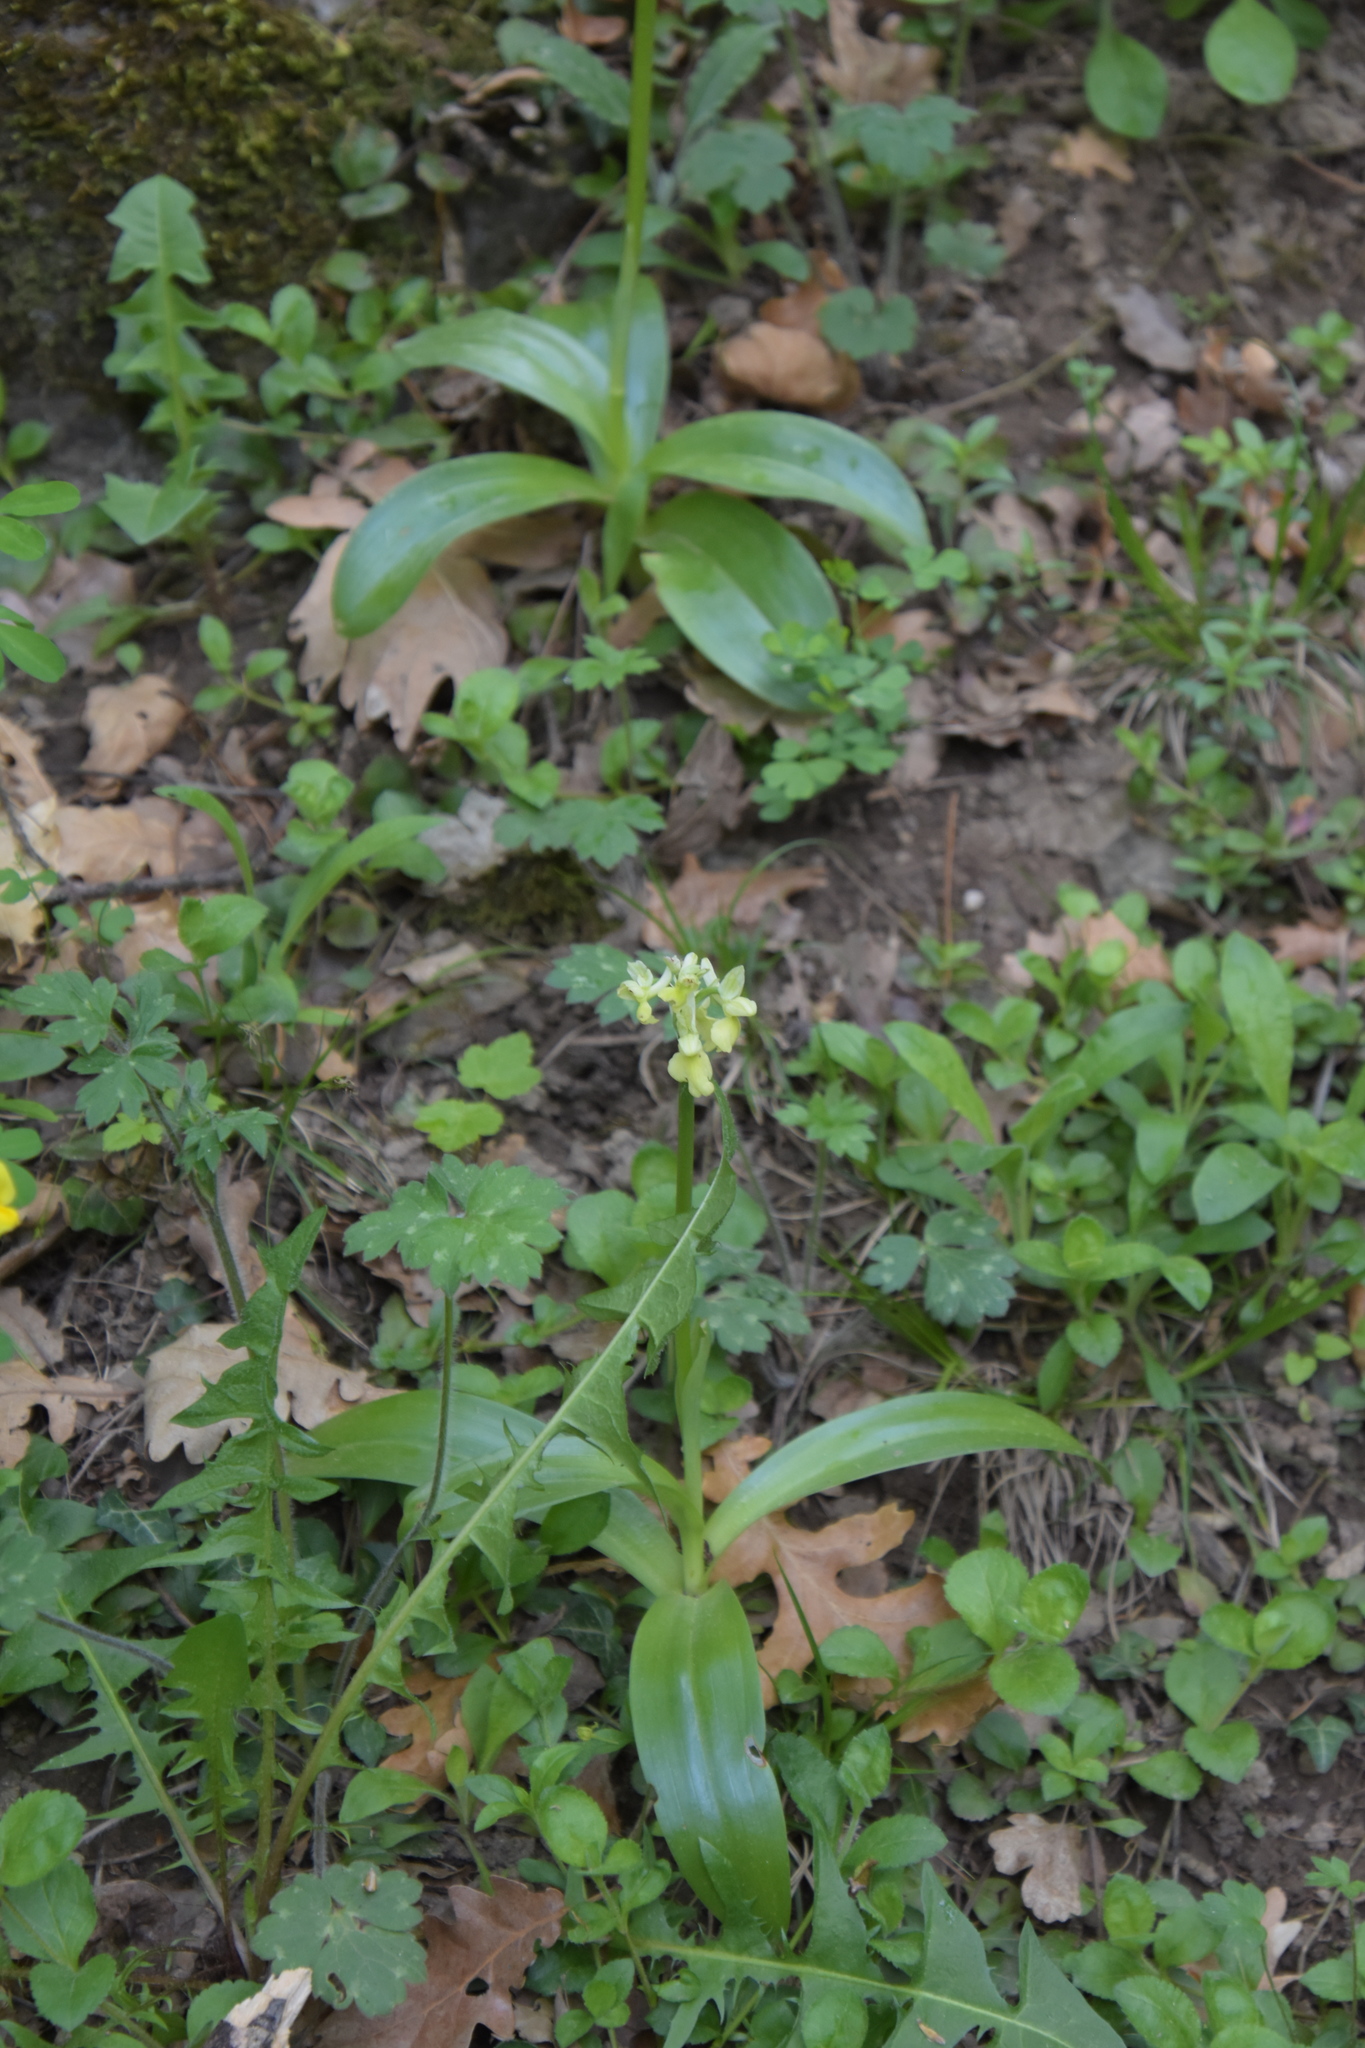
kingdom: Plantae
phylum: Tracheophyta
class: Liliopsida
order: Asparagales
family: Orchidaceae
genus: Orchis
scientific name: Orchis pallens
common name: Pale-flowered orchid
